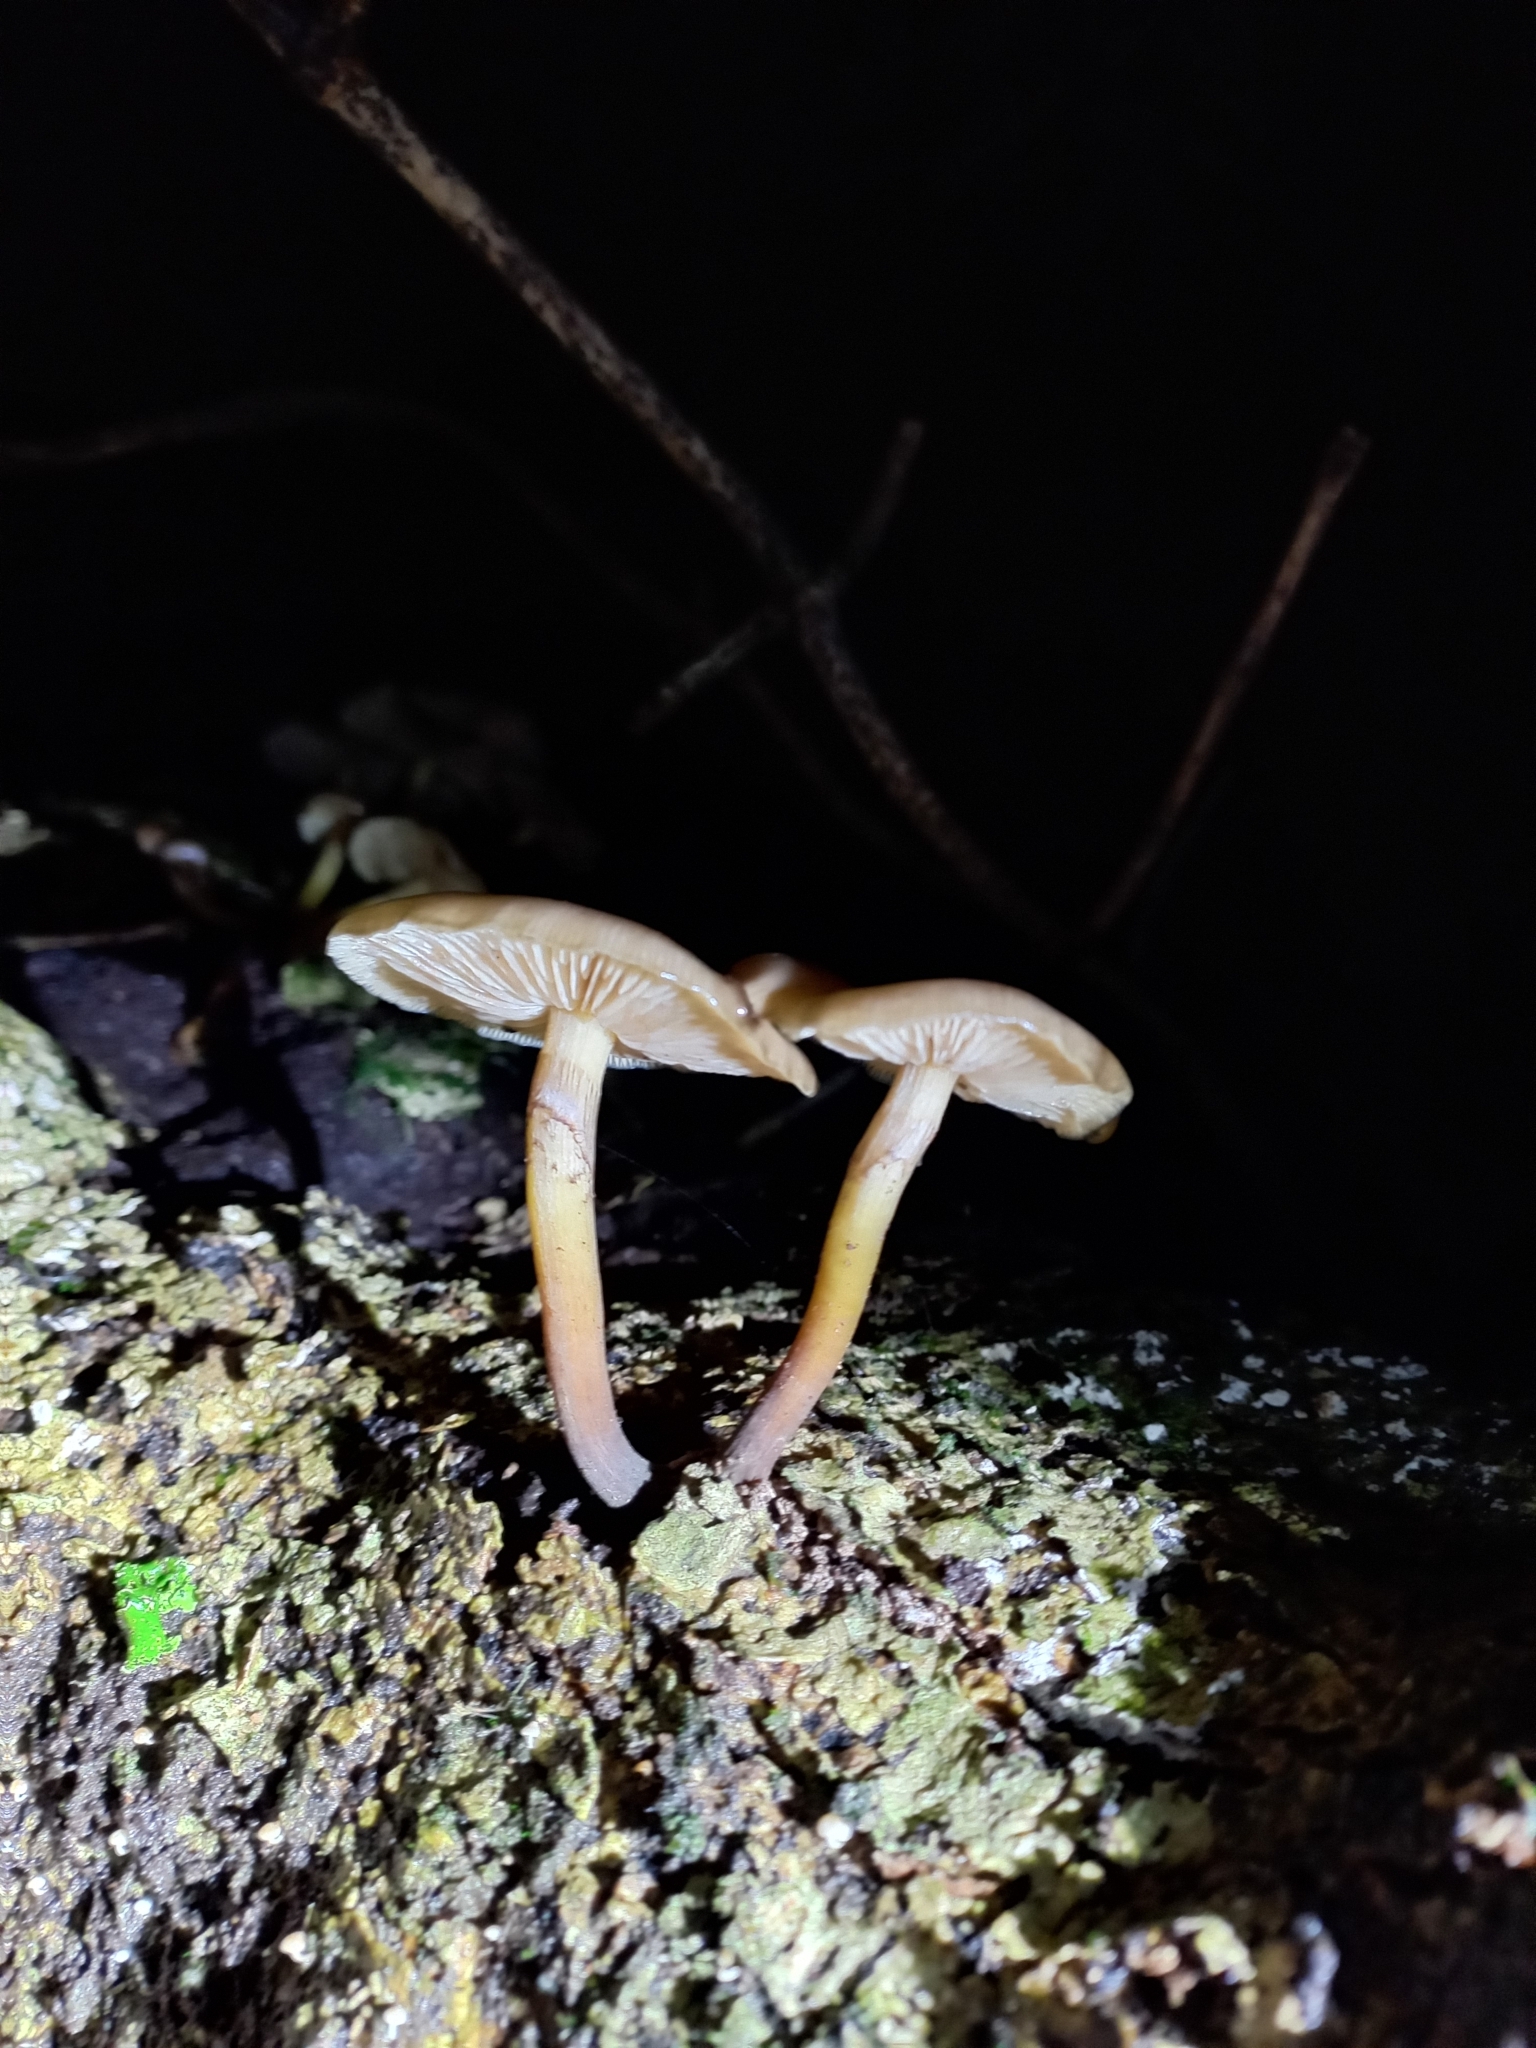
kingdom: Fungi
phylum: Basidiomycota
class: Agaricomycetes
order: Agaricales
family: Physalacriaceae
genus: Armillaria
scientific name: Armillaria novae-zelandiae
